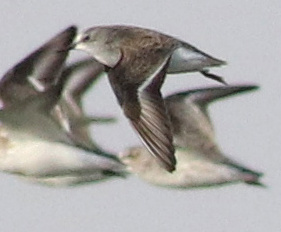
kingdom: Animalia
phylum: Chordata
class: Aves
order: Charadriiformes
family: Scolopacidae
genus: Calidris
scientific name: Calidris minuta
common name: Little stint
